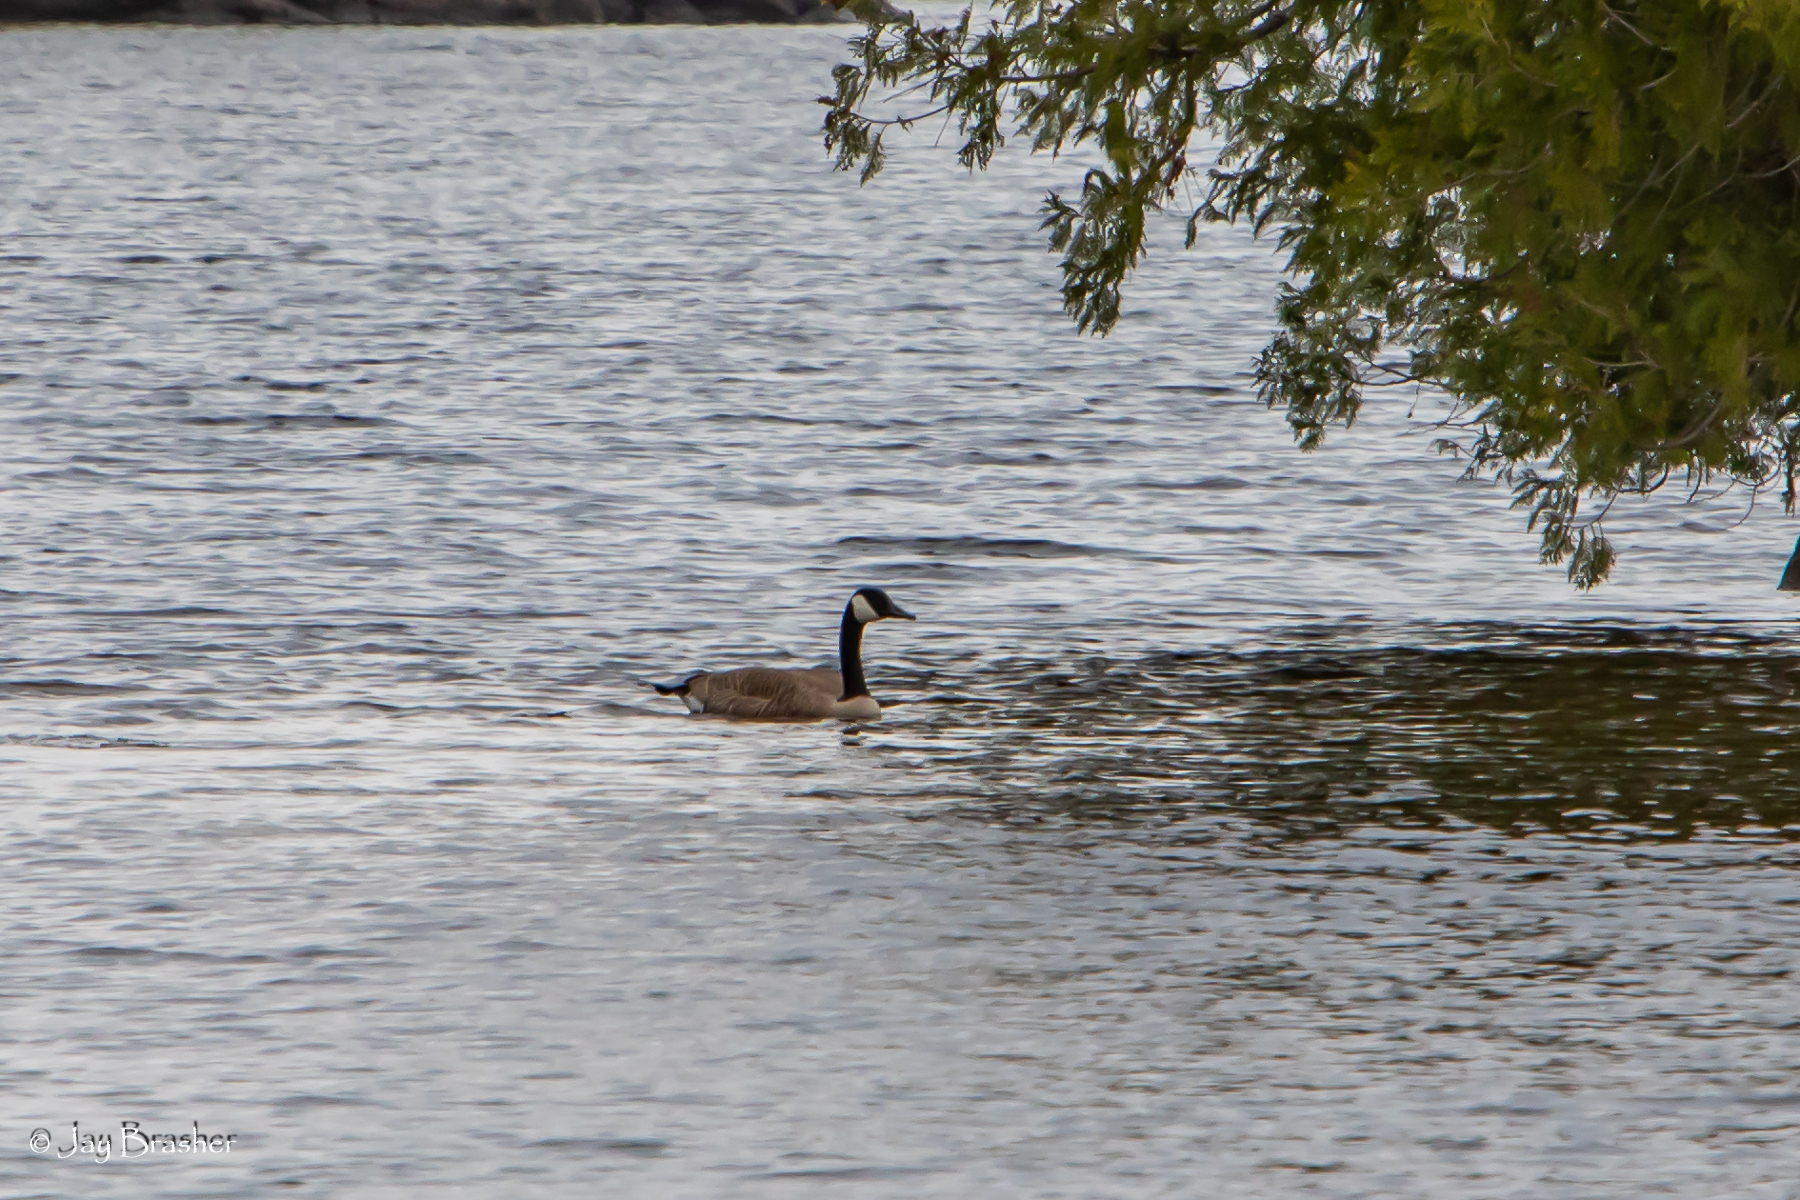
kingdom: Animalia
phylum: Chordata
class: Aves
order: Anseriformes
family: Anatidae
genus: Branta
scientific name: Branta canadensis
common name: Canada goose
